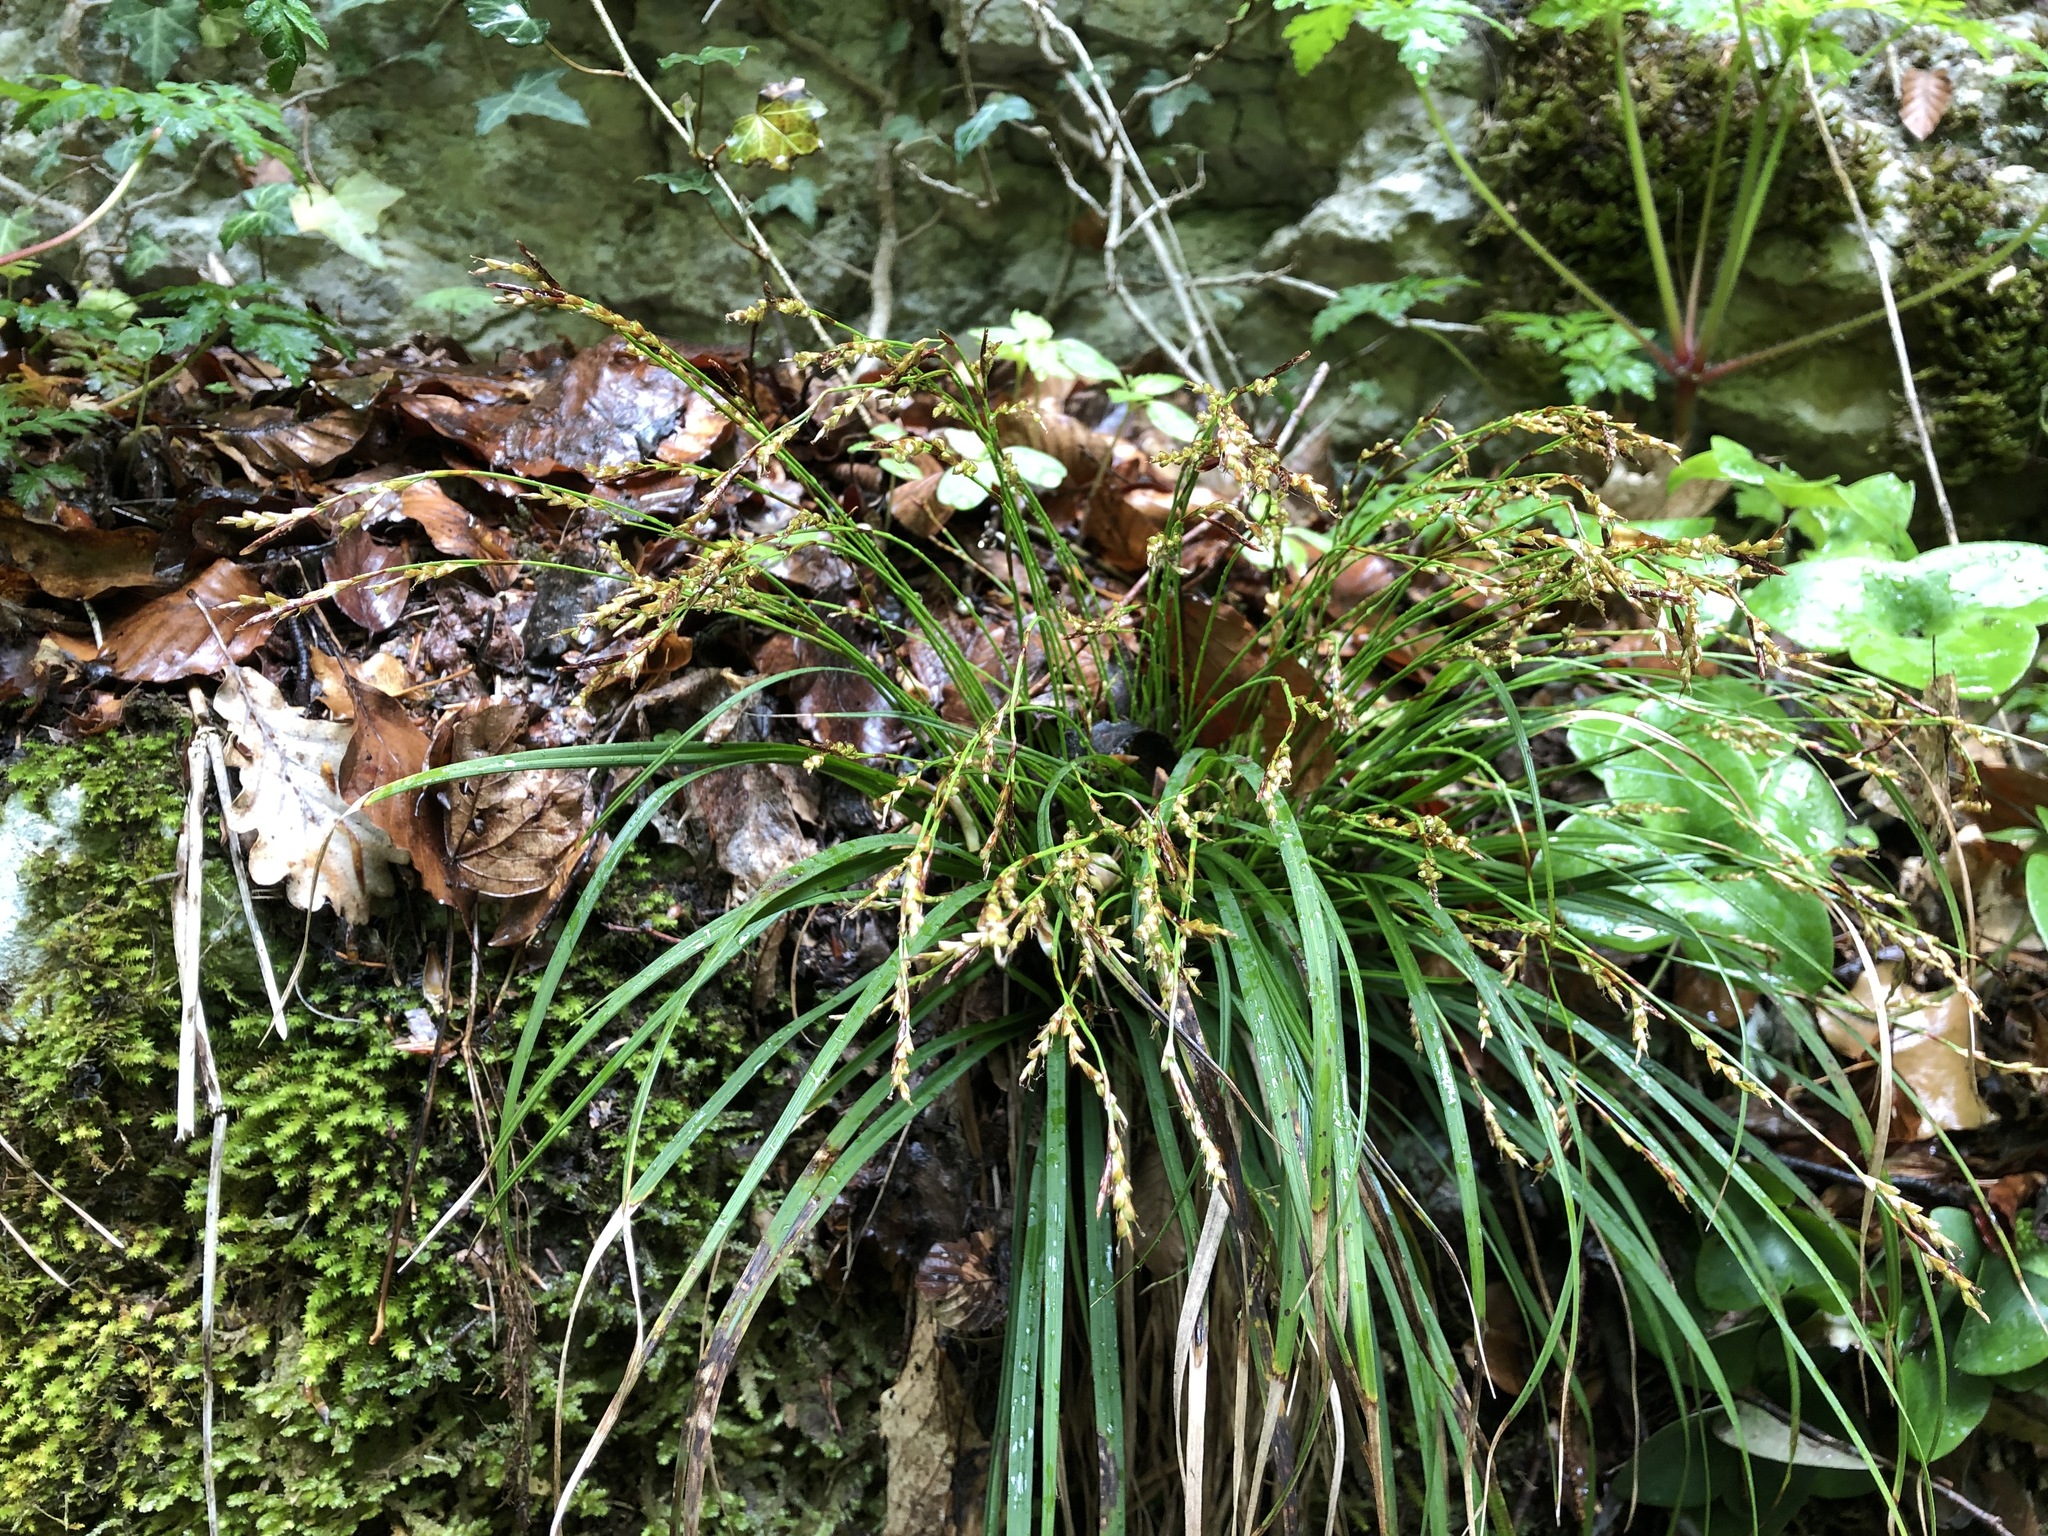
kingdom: Plantae
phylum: Tracheophyta
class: Liliopsida
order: Poales
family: Cyperaceae
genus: Carex
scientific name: Carex digitata
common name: Fingered sedge
